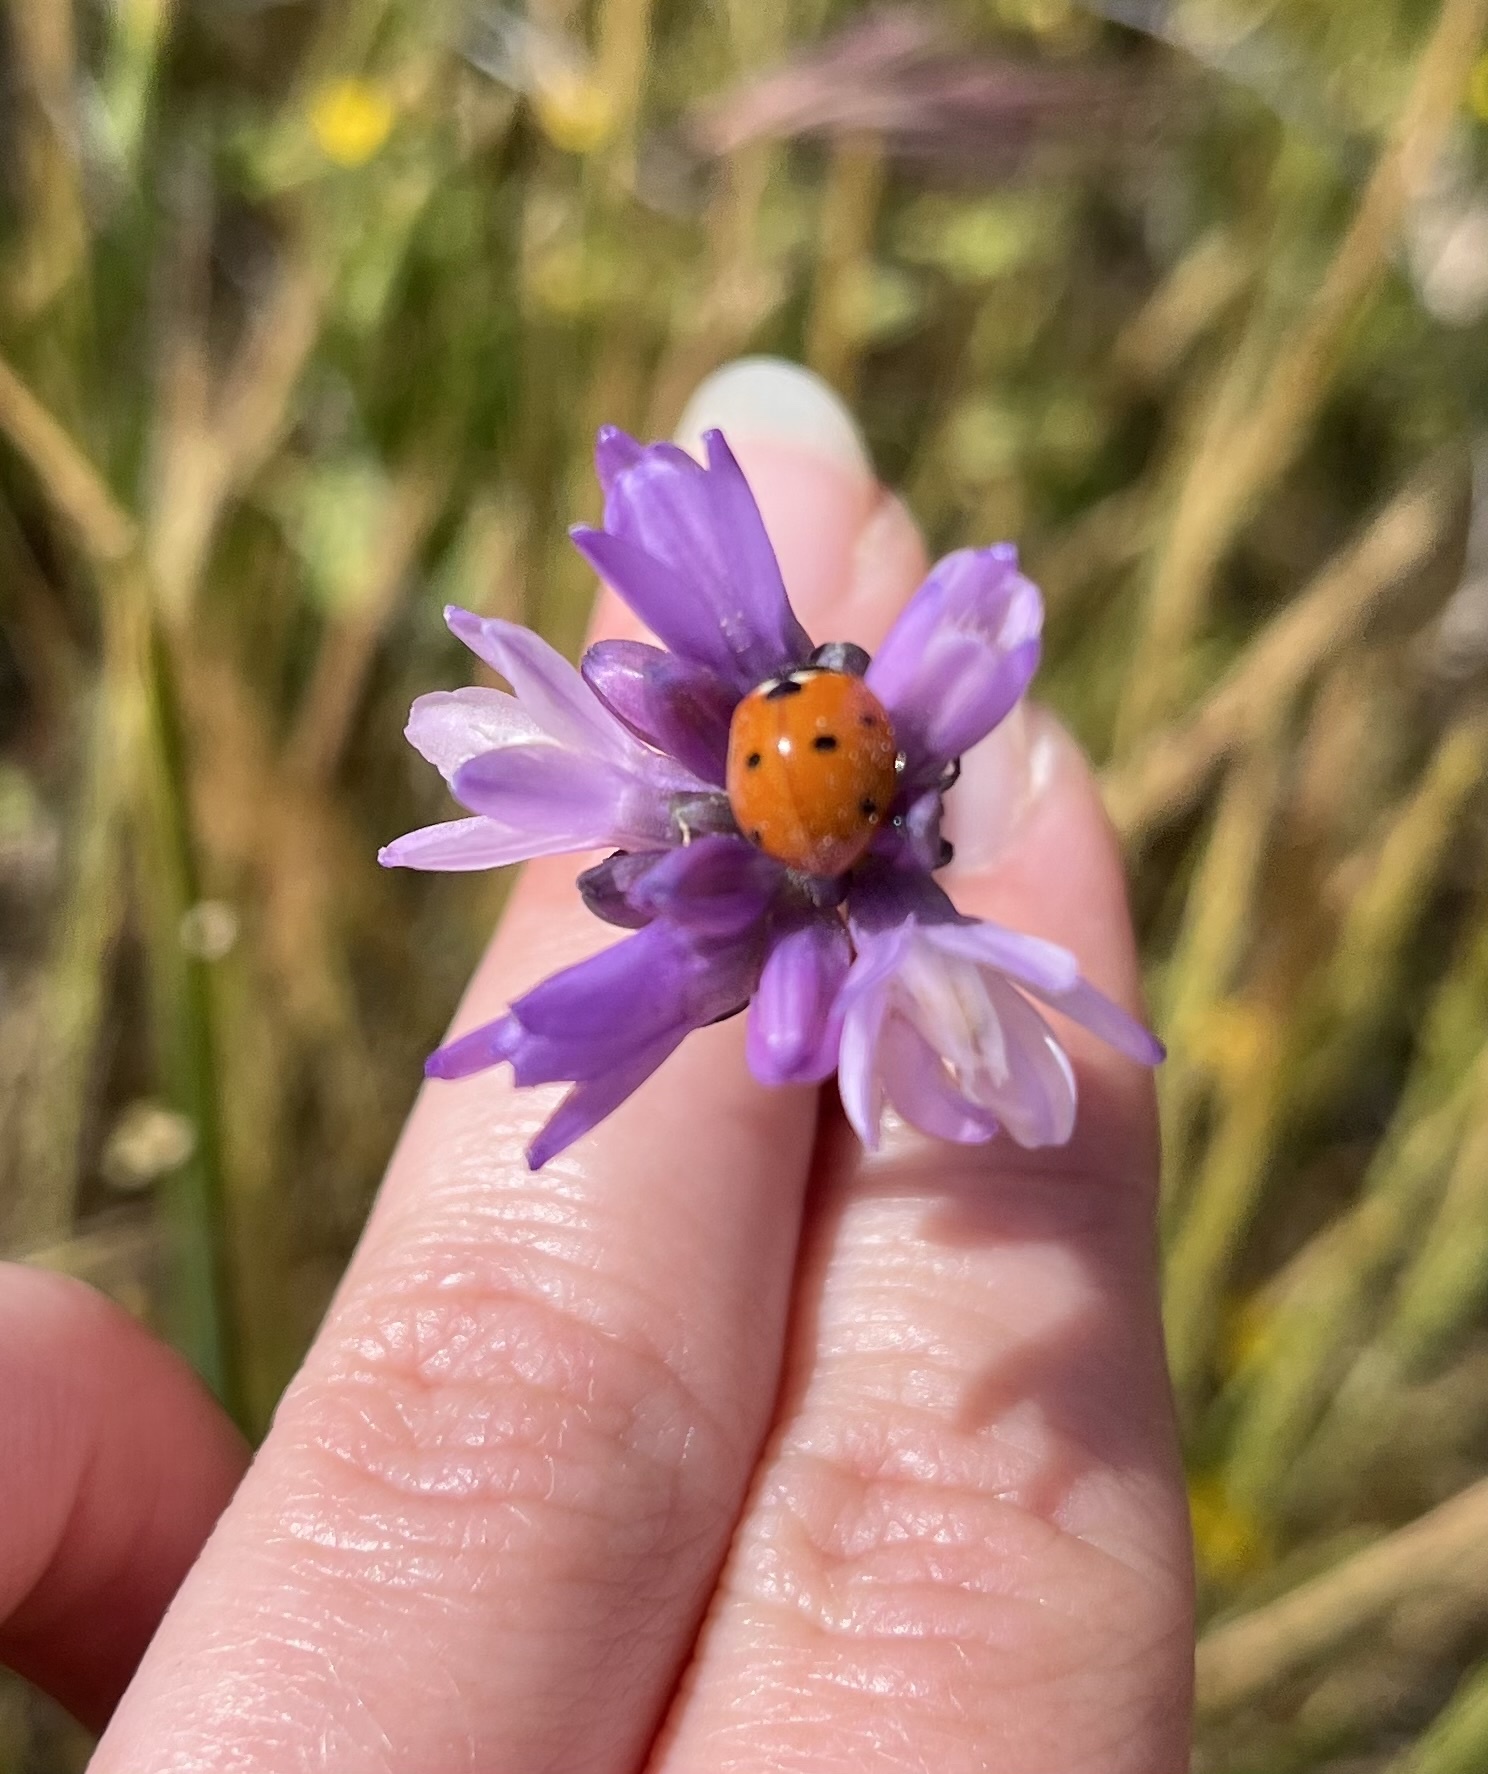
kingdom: Animalia
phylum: Arthropoda
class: Insecta
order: Coleoptera
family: Coccinellidae
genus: Coccinella
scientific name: Coccinella septempunctata
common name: Sevenspotted lady beetle
